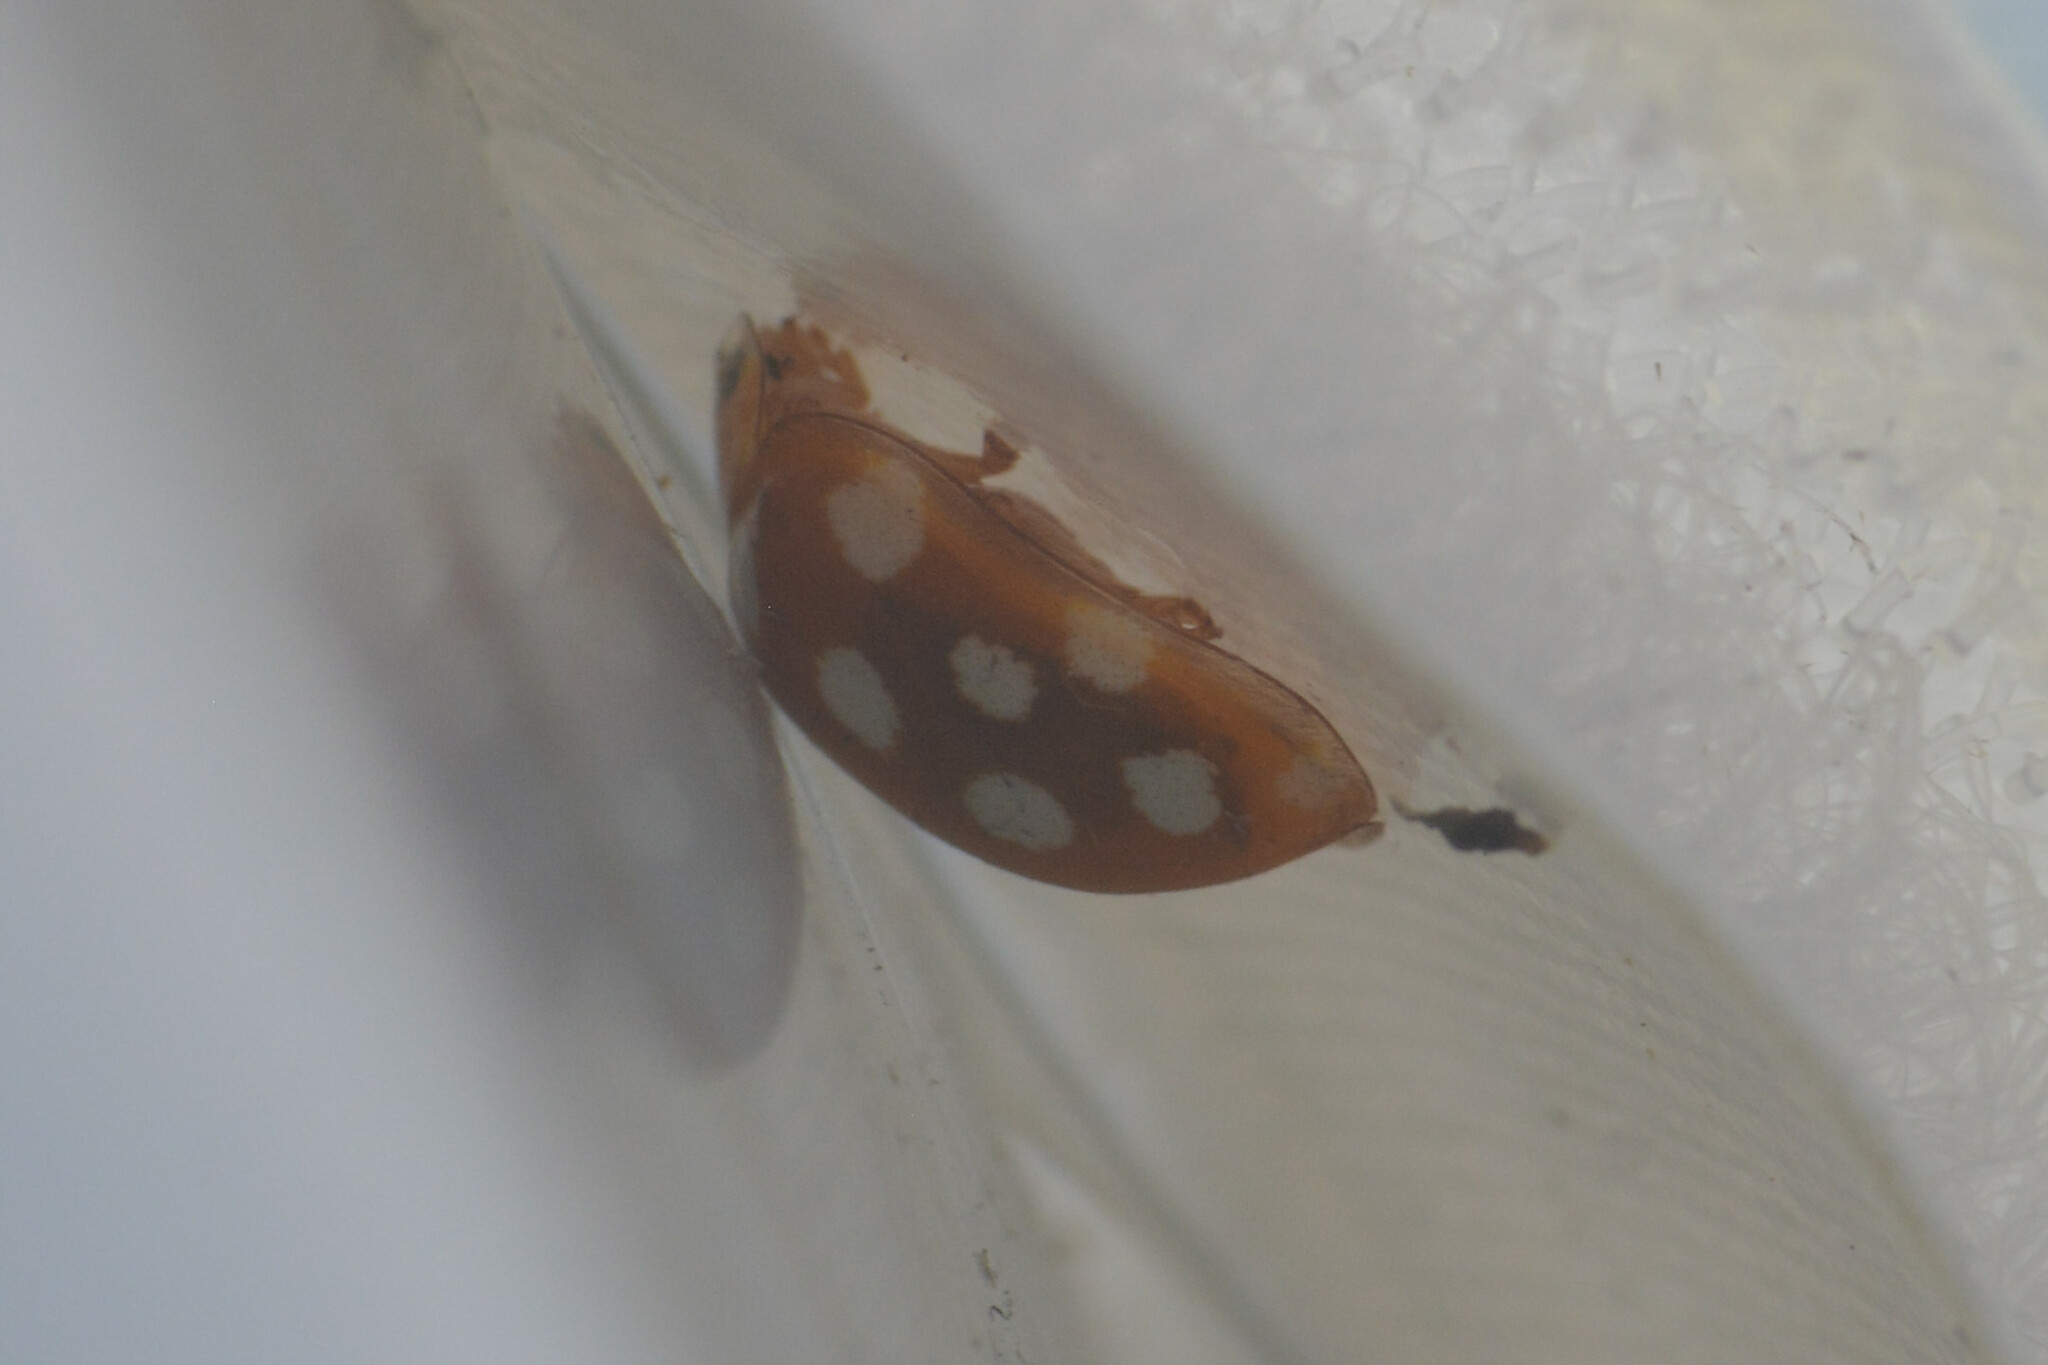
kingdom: Animalia
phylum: Arthropoda
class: Insecta
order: Coleoptera
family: Coccinellidae
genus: Halyzia
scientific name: Halyzia sedecimguttata
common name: Orange ladybird
